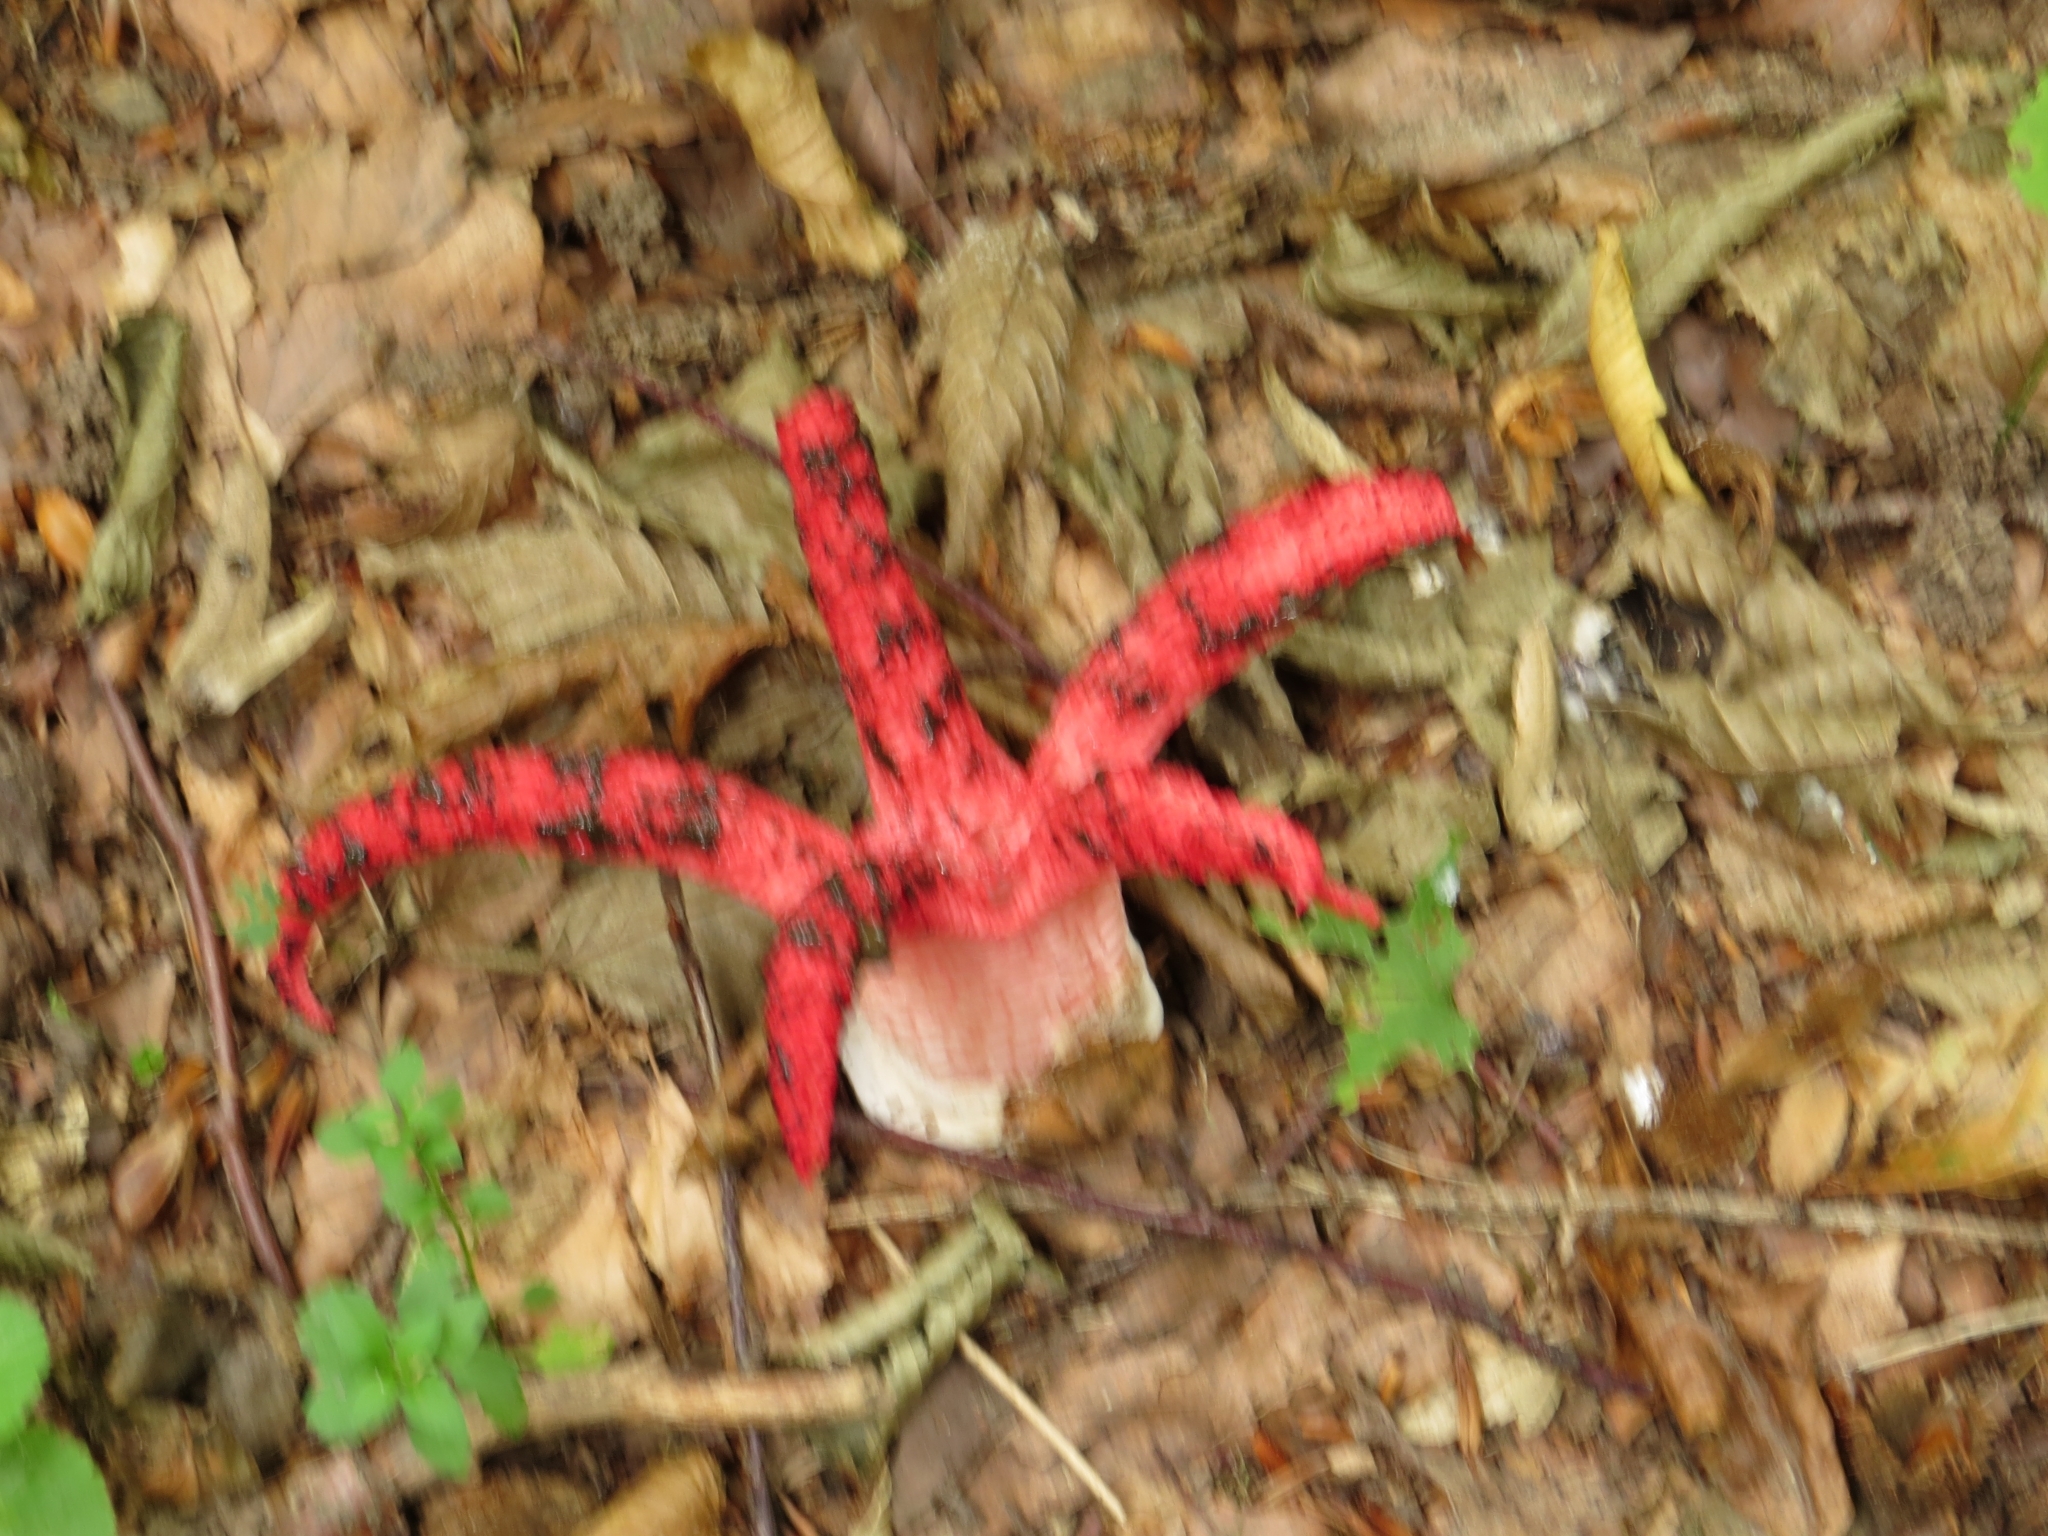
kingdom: Fungi
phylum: Basidiomycota
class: Agaricomycetes
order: Phallales
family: Phallaceae
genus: Clathrus
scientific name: Clathrus archeri
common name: Devil's fingers
